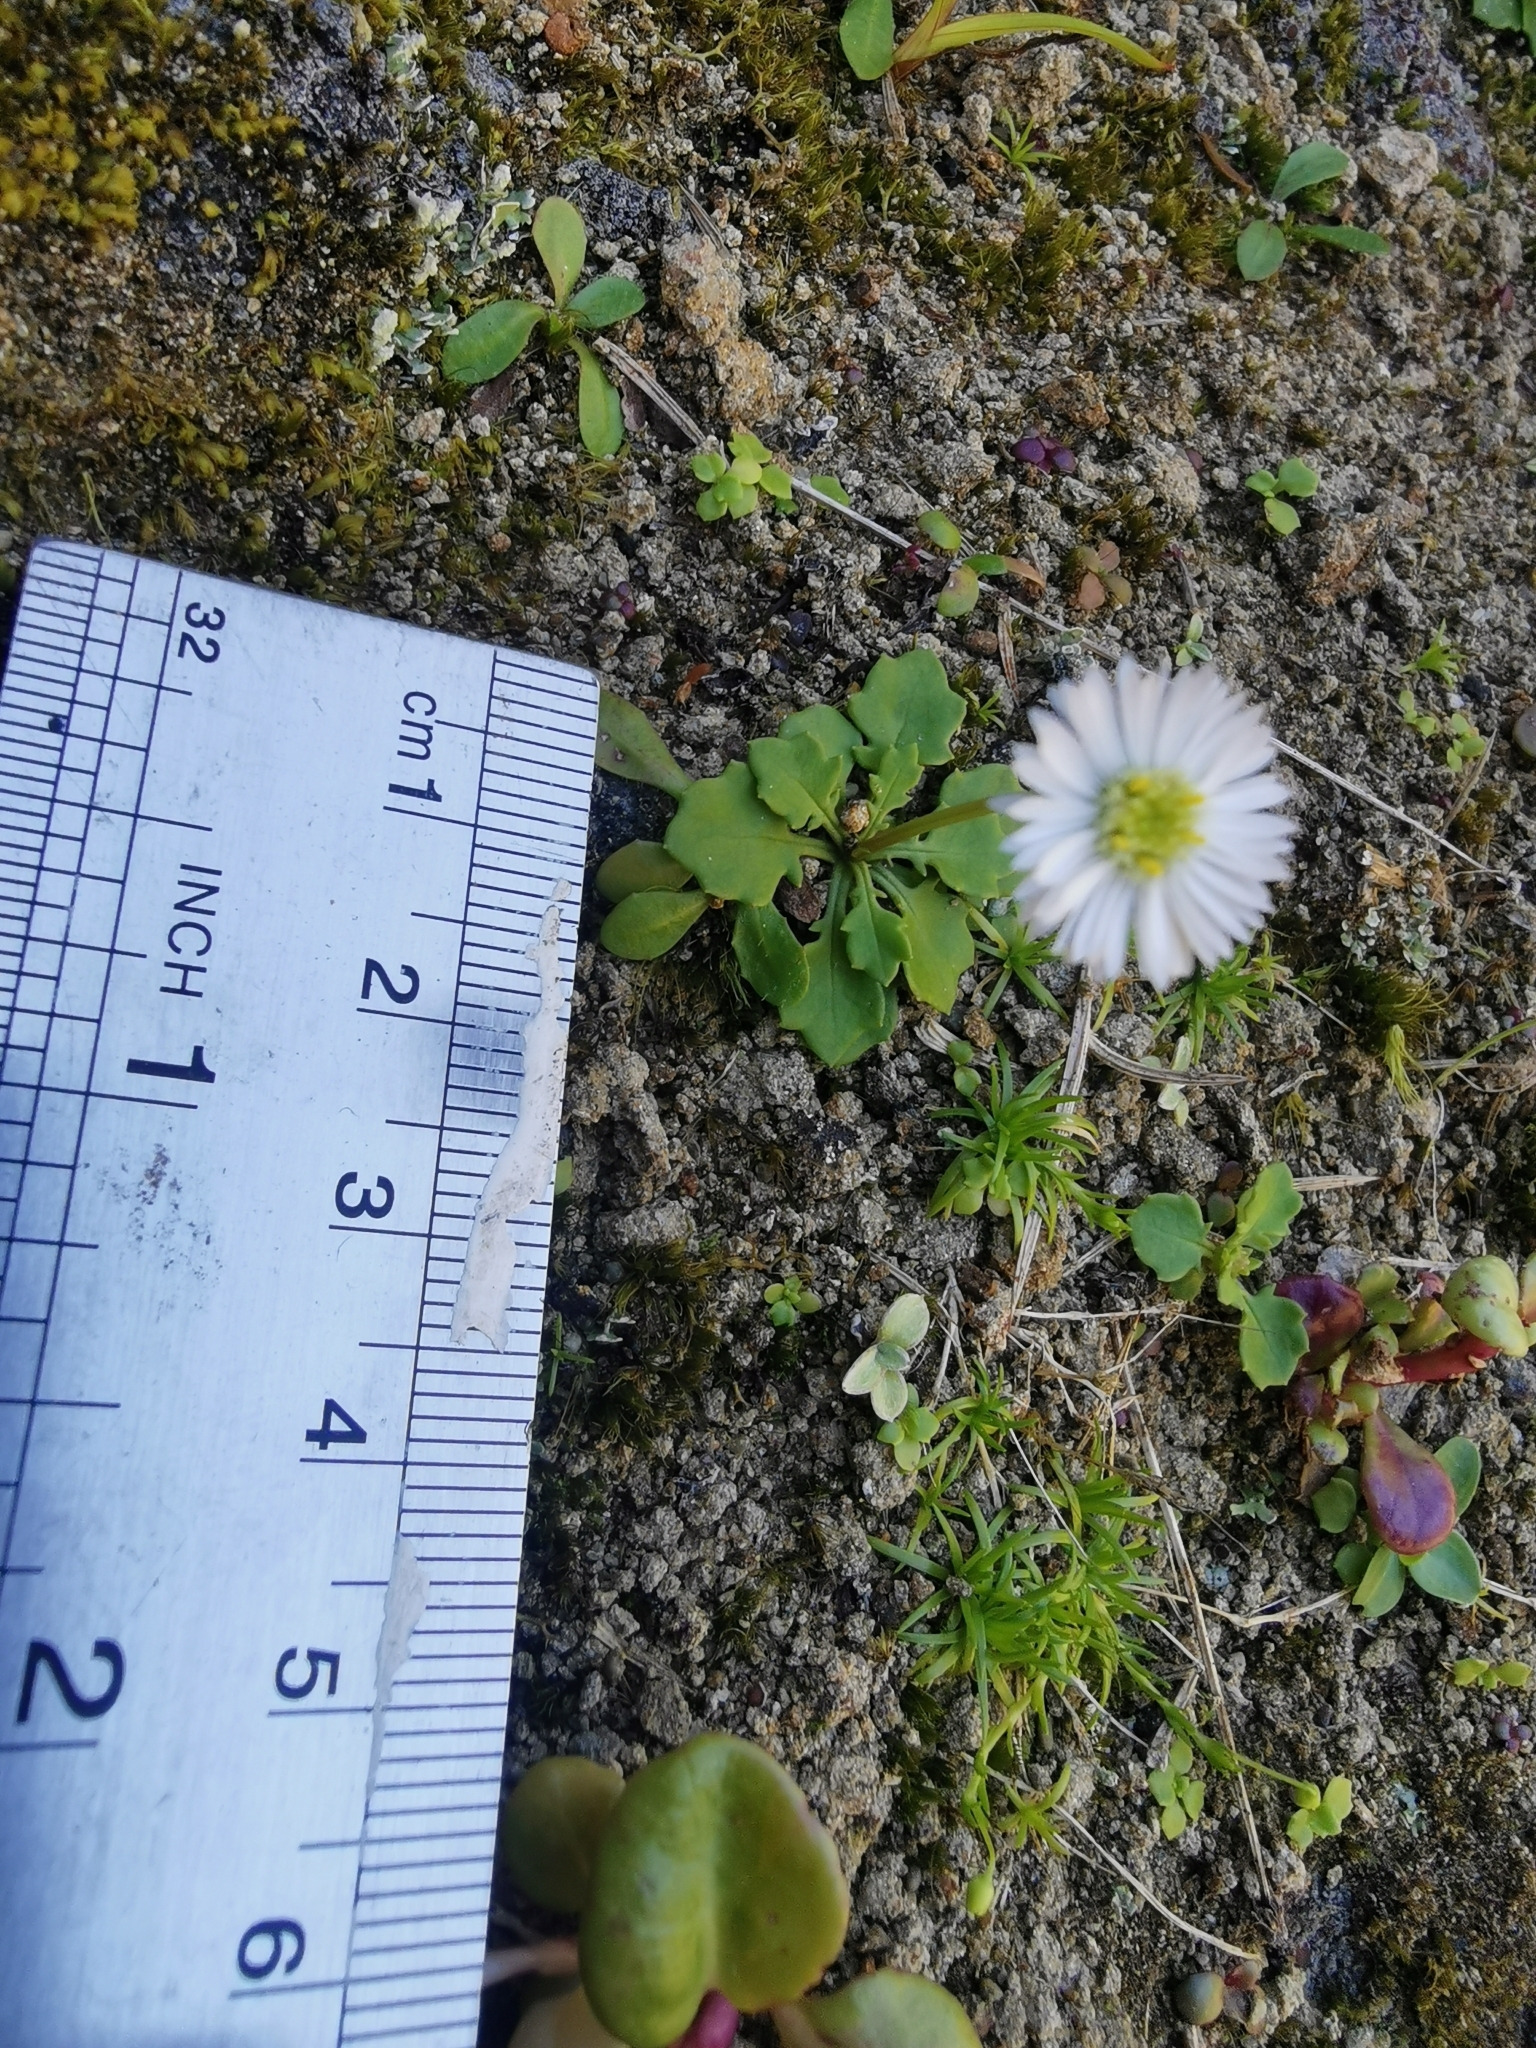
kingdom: Plantae
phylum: Tracheophyta
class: Magnoliopsida
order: Asterales
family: Asteraceae
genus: Lagenophora
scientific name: Lagenophora pumila
